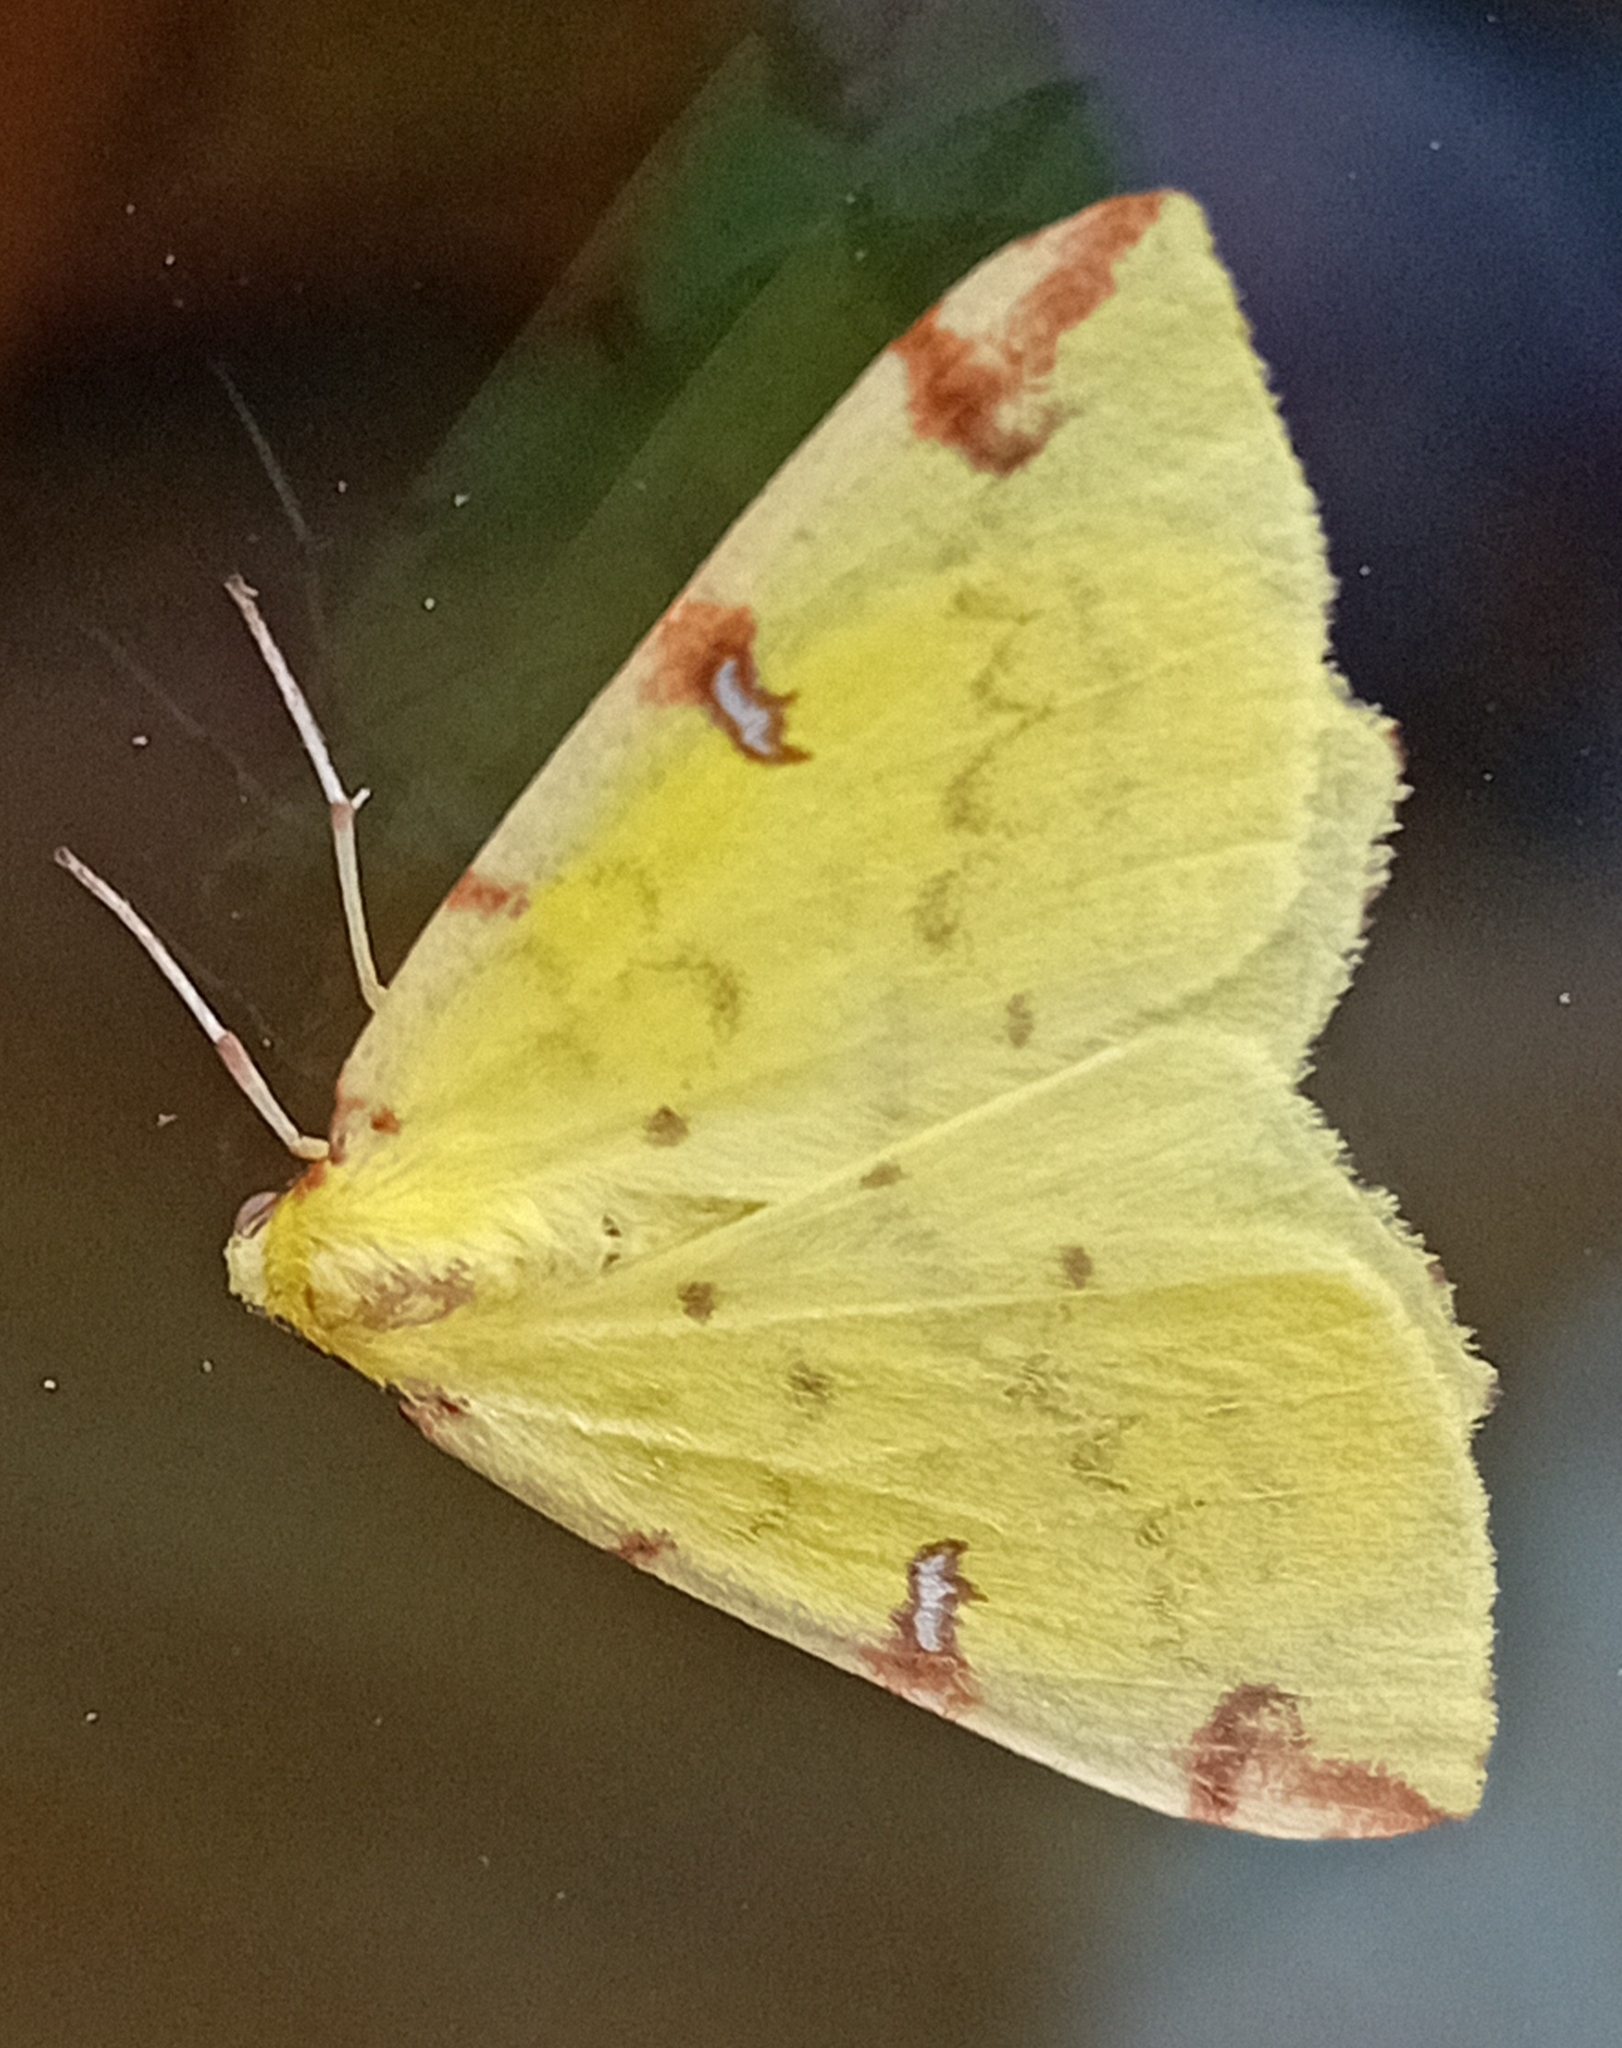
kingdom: Animalia
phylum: Arthropoda
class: Insecta
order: Lepidoptera
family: Geometridae
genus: Opisthograptis
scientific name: Opisthograptis luteolata
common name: Brimstone moth
